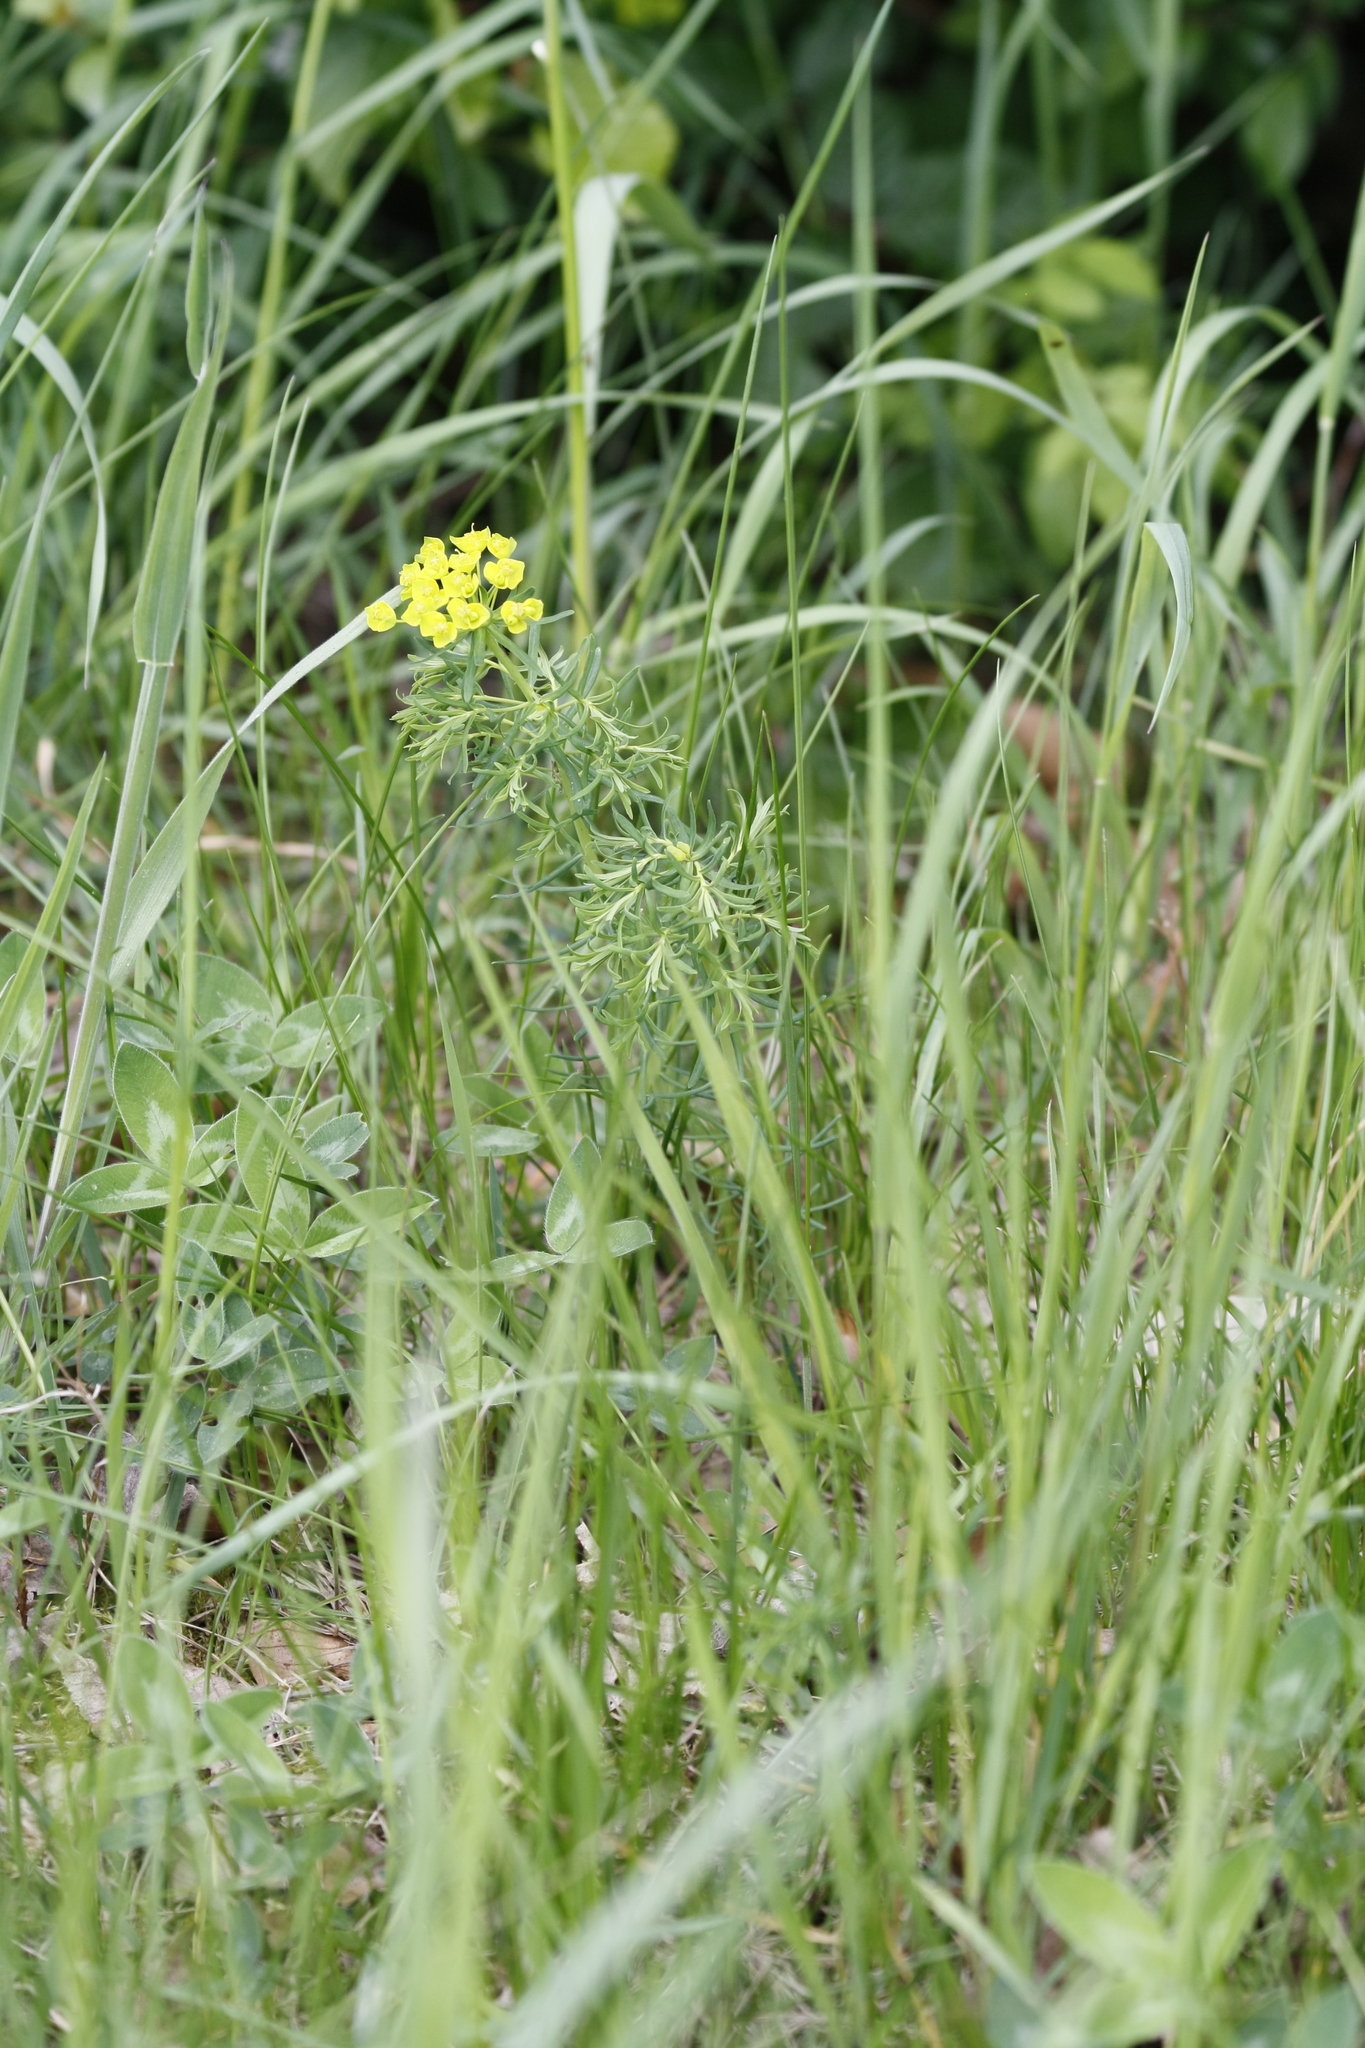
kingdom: Plantae
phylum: Tracheophyta
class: Magnoliopsida
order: Malpighiales
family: Euphorbiaceae
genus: Euphorbia
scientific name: Euphorbia cyparissias
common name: Cypress spurge
